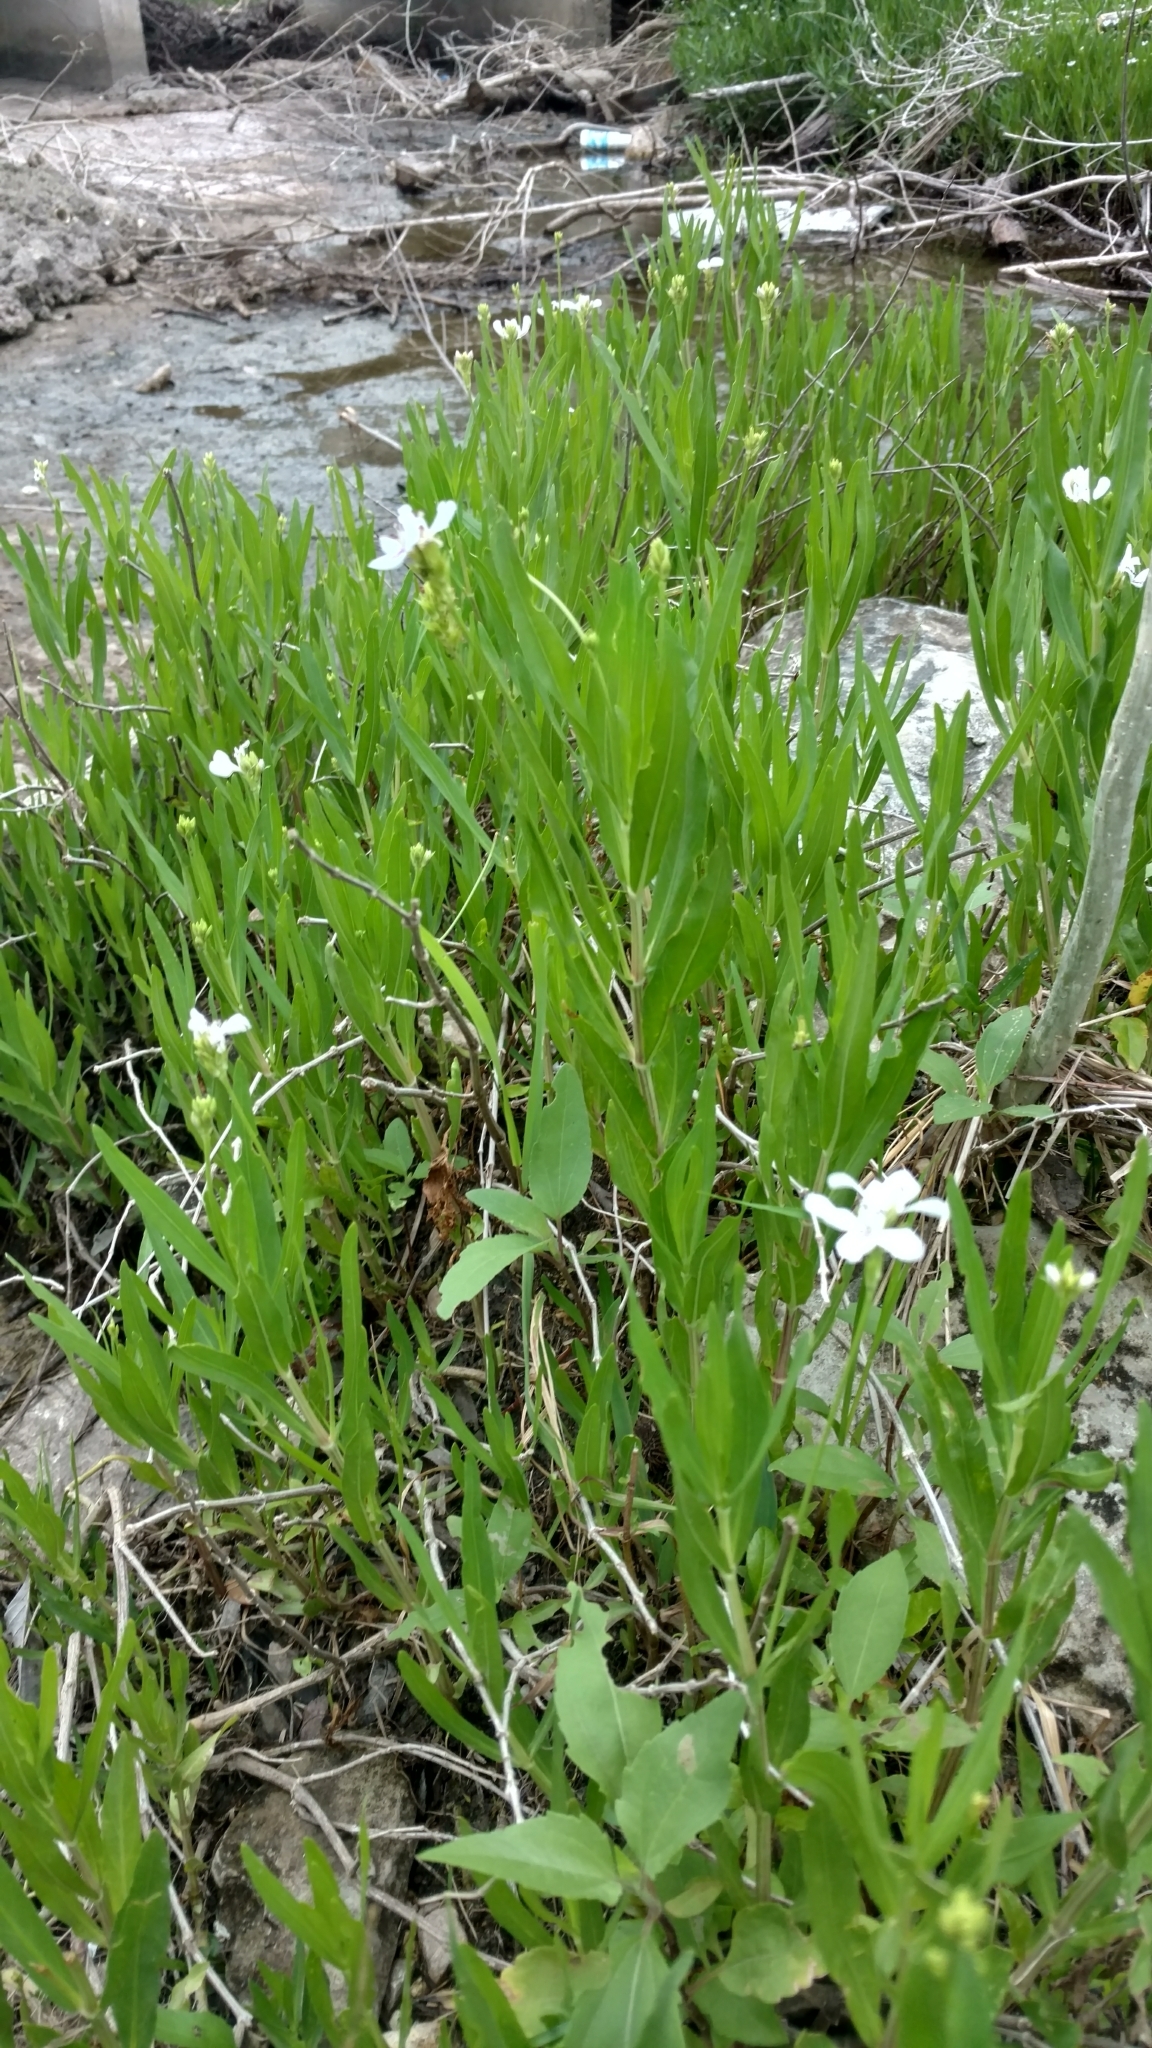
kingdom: Plantae
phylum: Tracheophyta
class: Magnoliopsida
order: Lamiales
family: Acanthaceae
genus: Dianthera
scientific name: Dianthera americana
